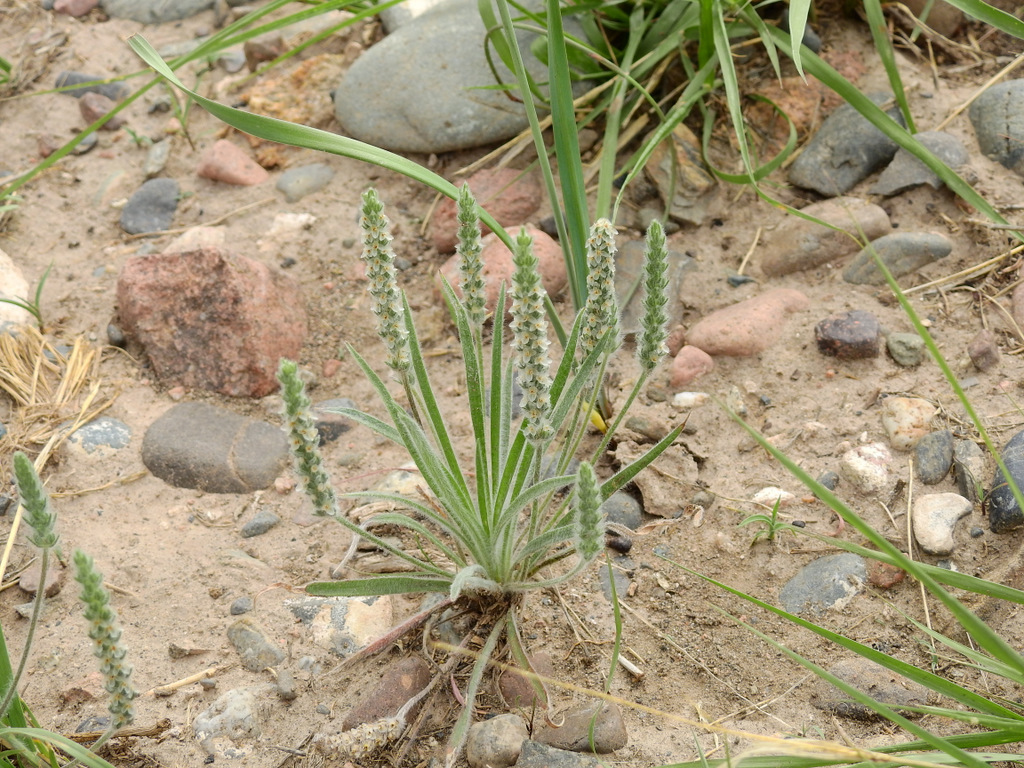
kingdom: Plantae
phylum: Tracheophyta
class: Magnoliopsida
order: Lamiales
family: Plantaginaceae
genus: Plantago
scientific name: Plantago patagonica
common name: Patagonia indian-wheat
